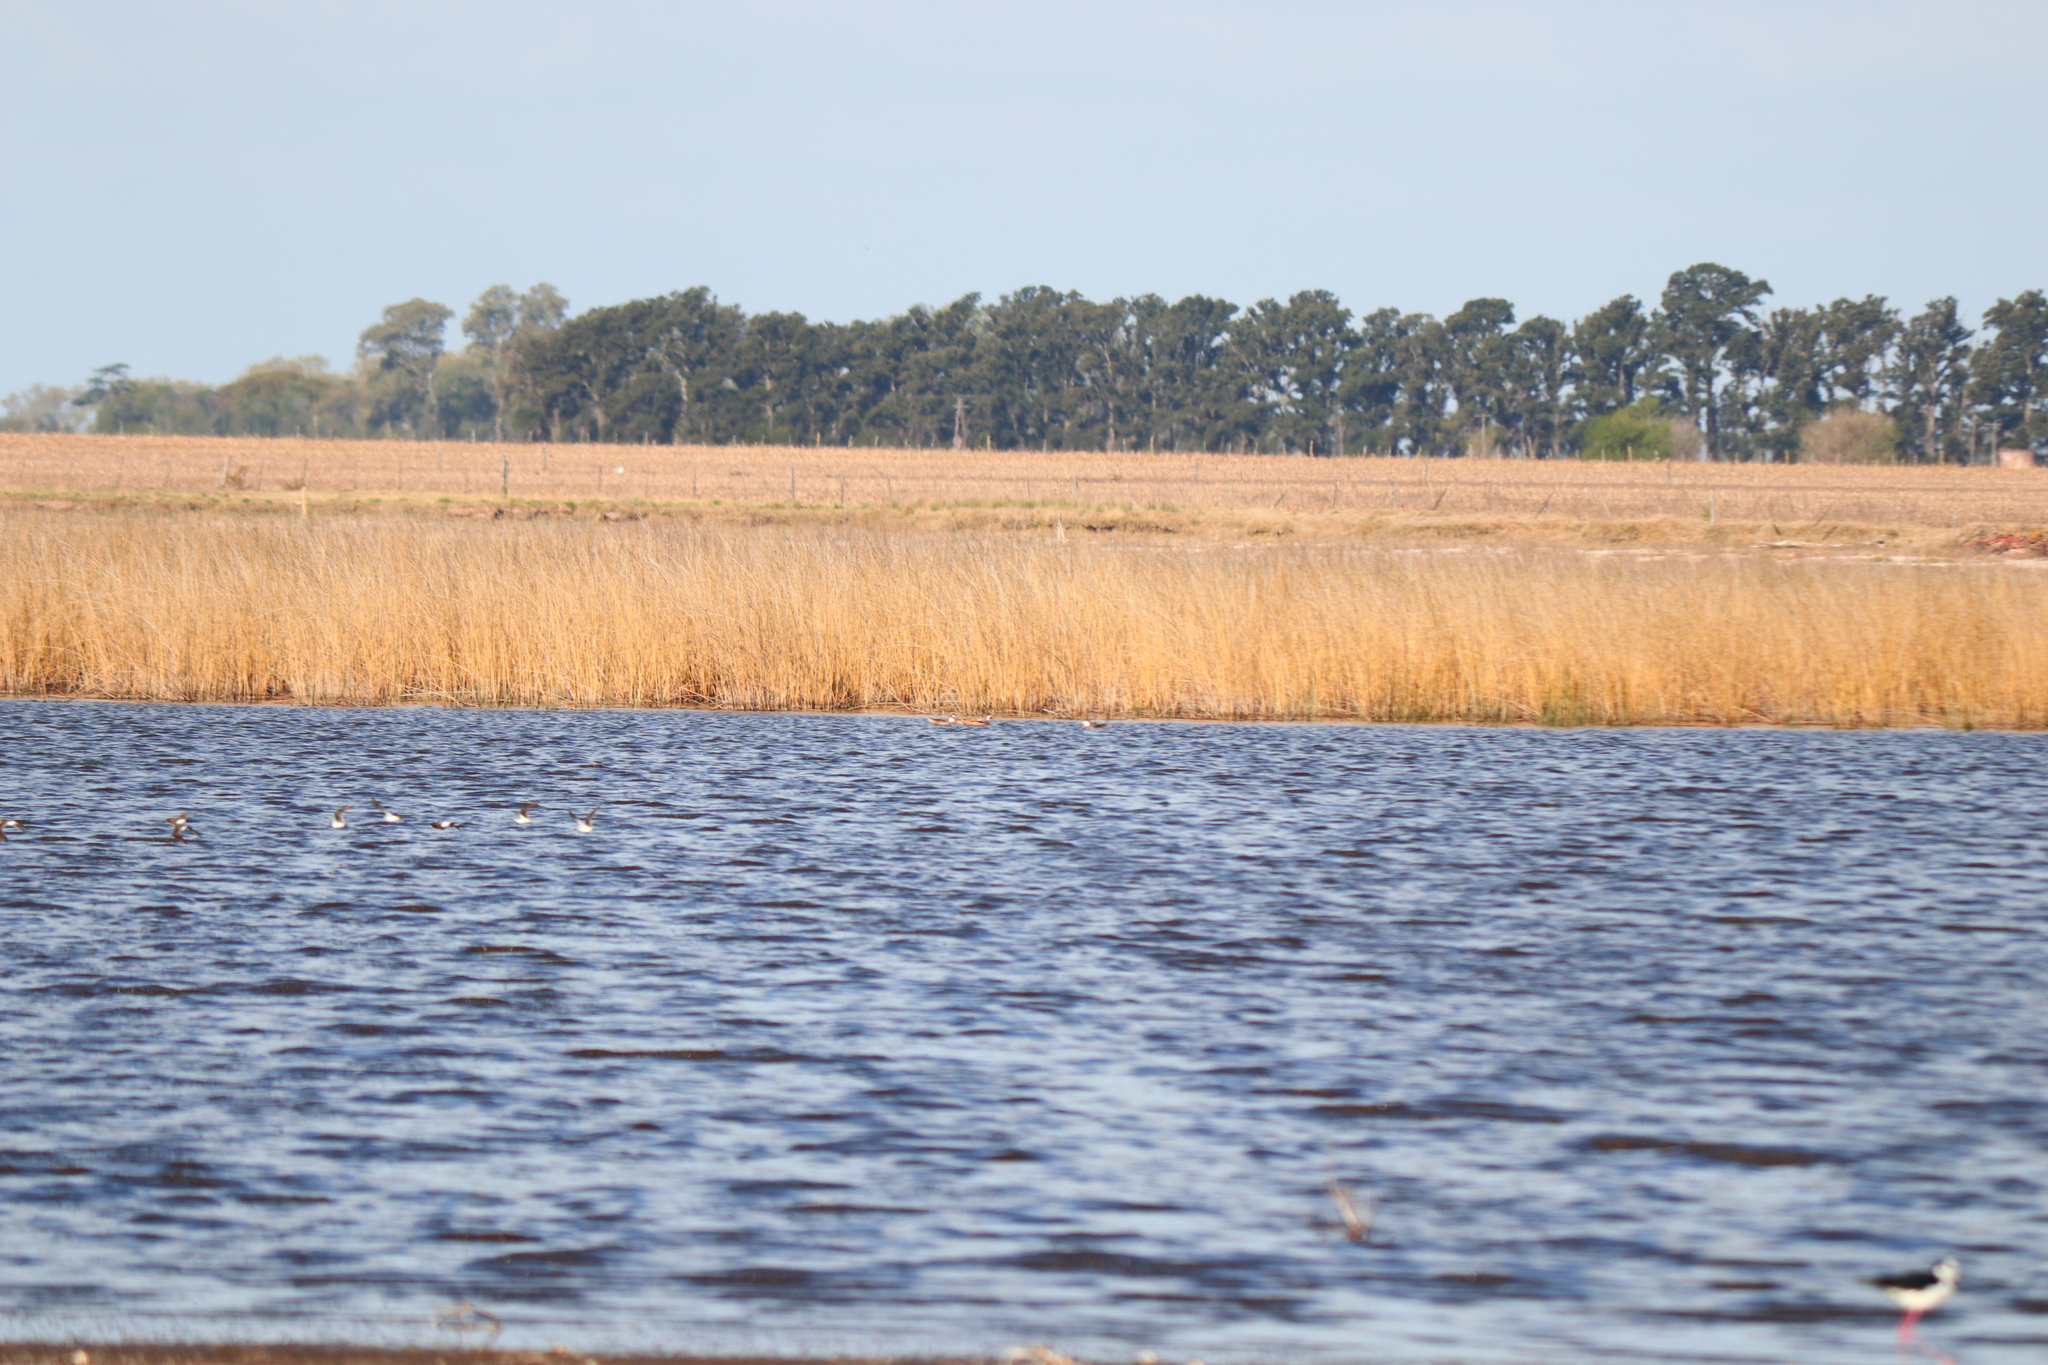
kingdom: Animalia
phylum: Chordata
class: Aves
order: Anseriformes
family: Anatidae
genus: Anas
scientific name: Anas bahamensis
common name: White-cheeked pintail
